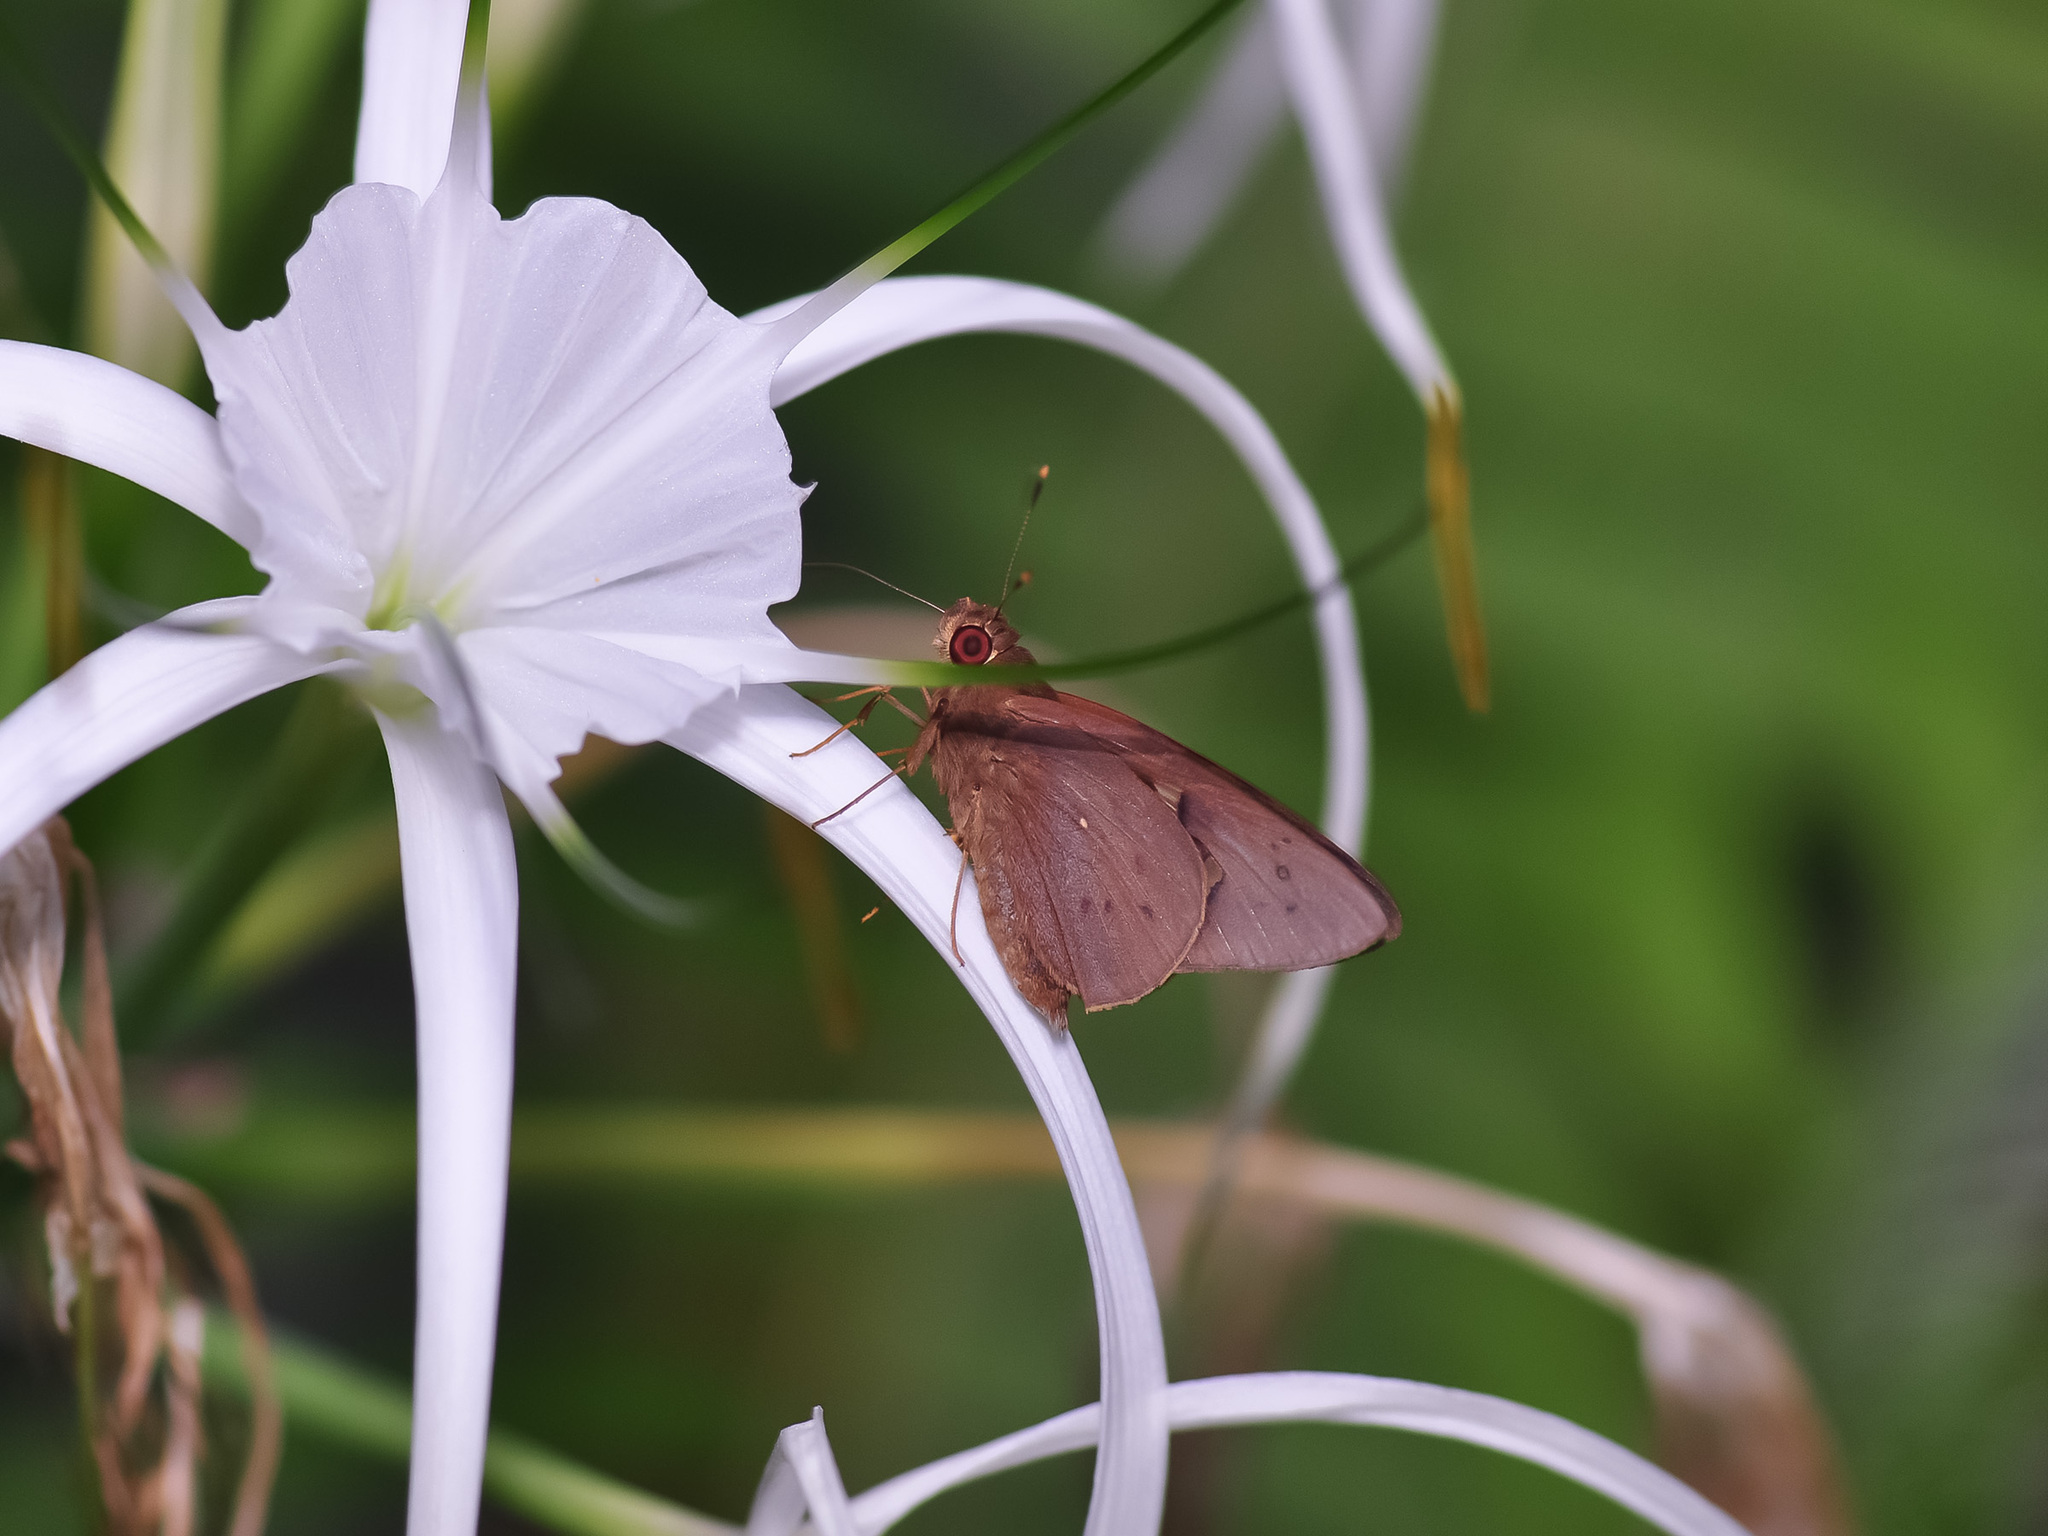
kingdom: Animalia
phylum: Arthropoda
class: Insecta
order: Lepidoptera
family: Hesperiidae
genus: Hidari
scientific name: Hidari irava
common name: Coconut skipper
